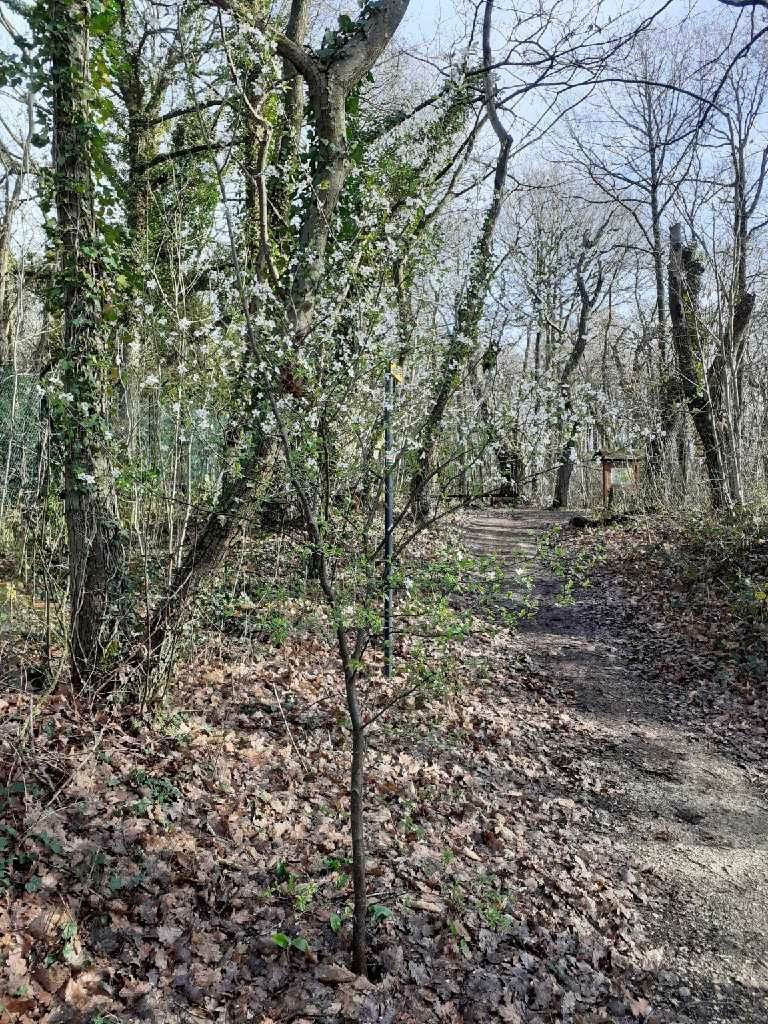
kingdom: Plantae
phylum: Tracheophyta
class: Magnoliopsida
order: Rosales
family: Rosaceae
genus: Prunus
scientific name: Prunus cerasifera
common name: Cherry plum
